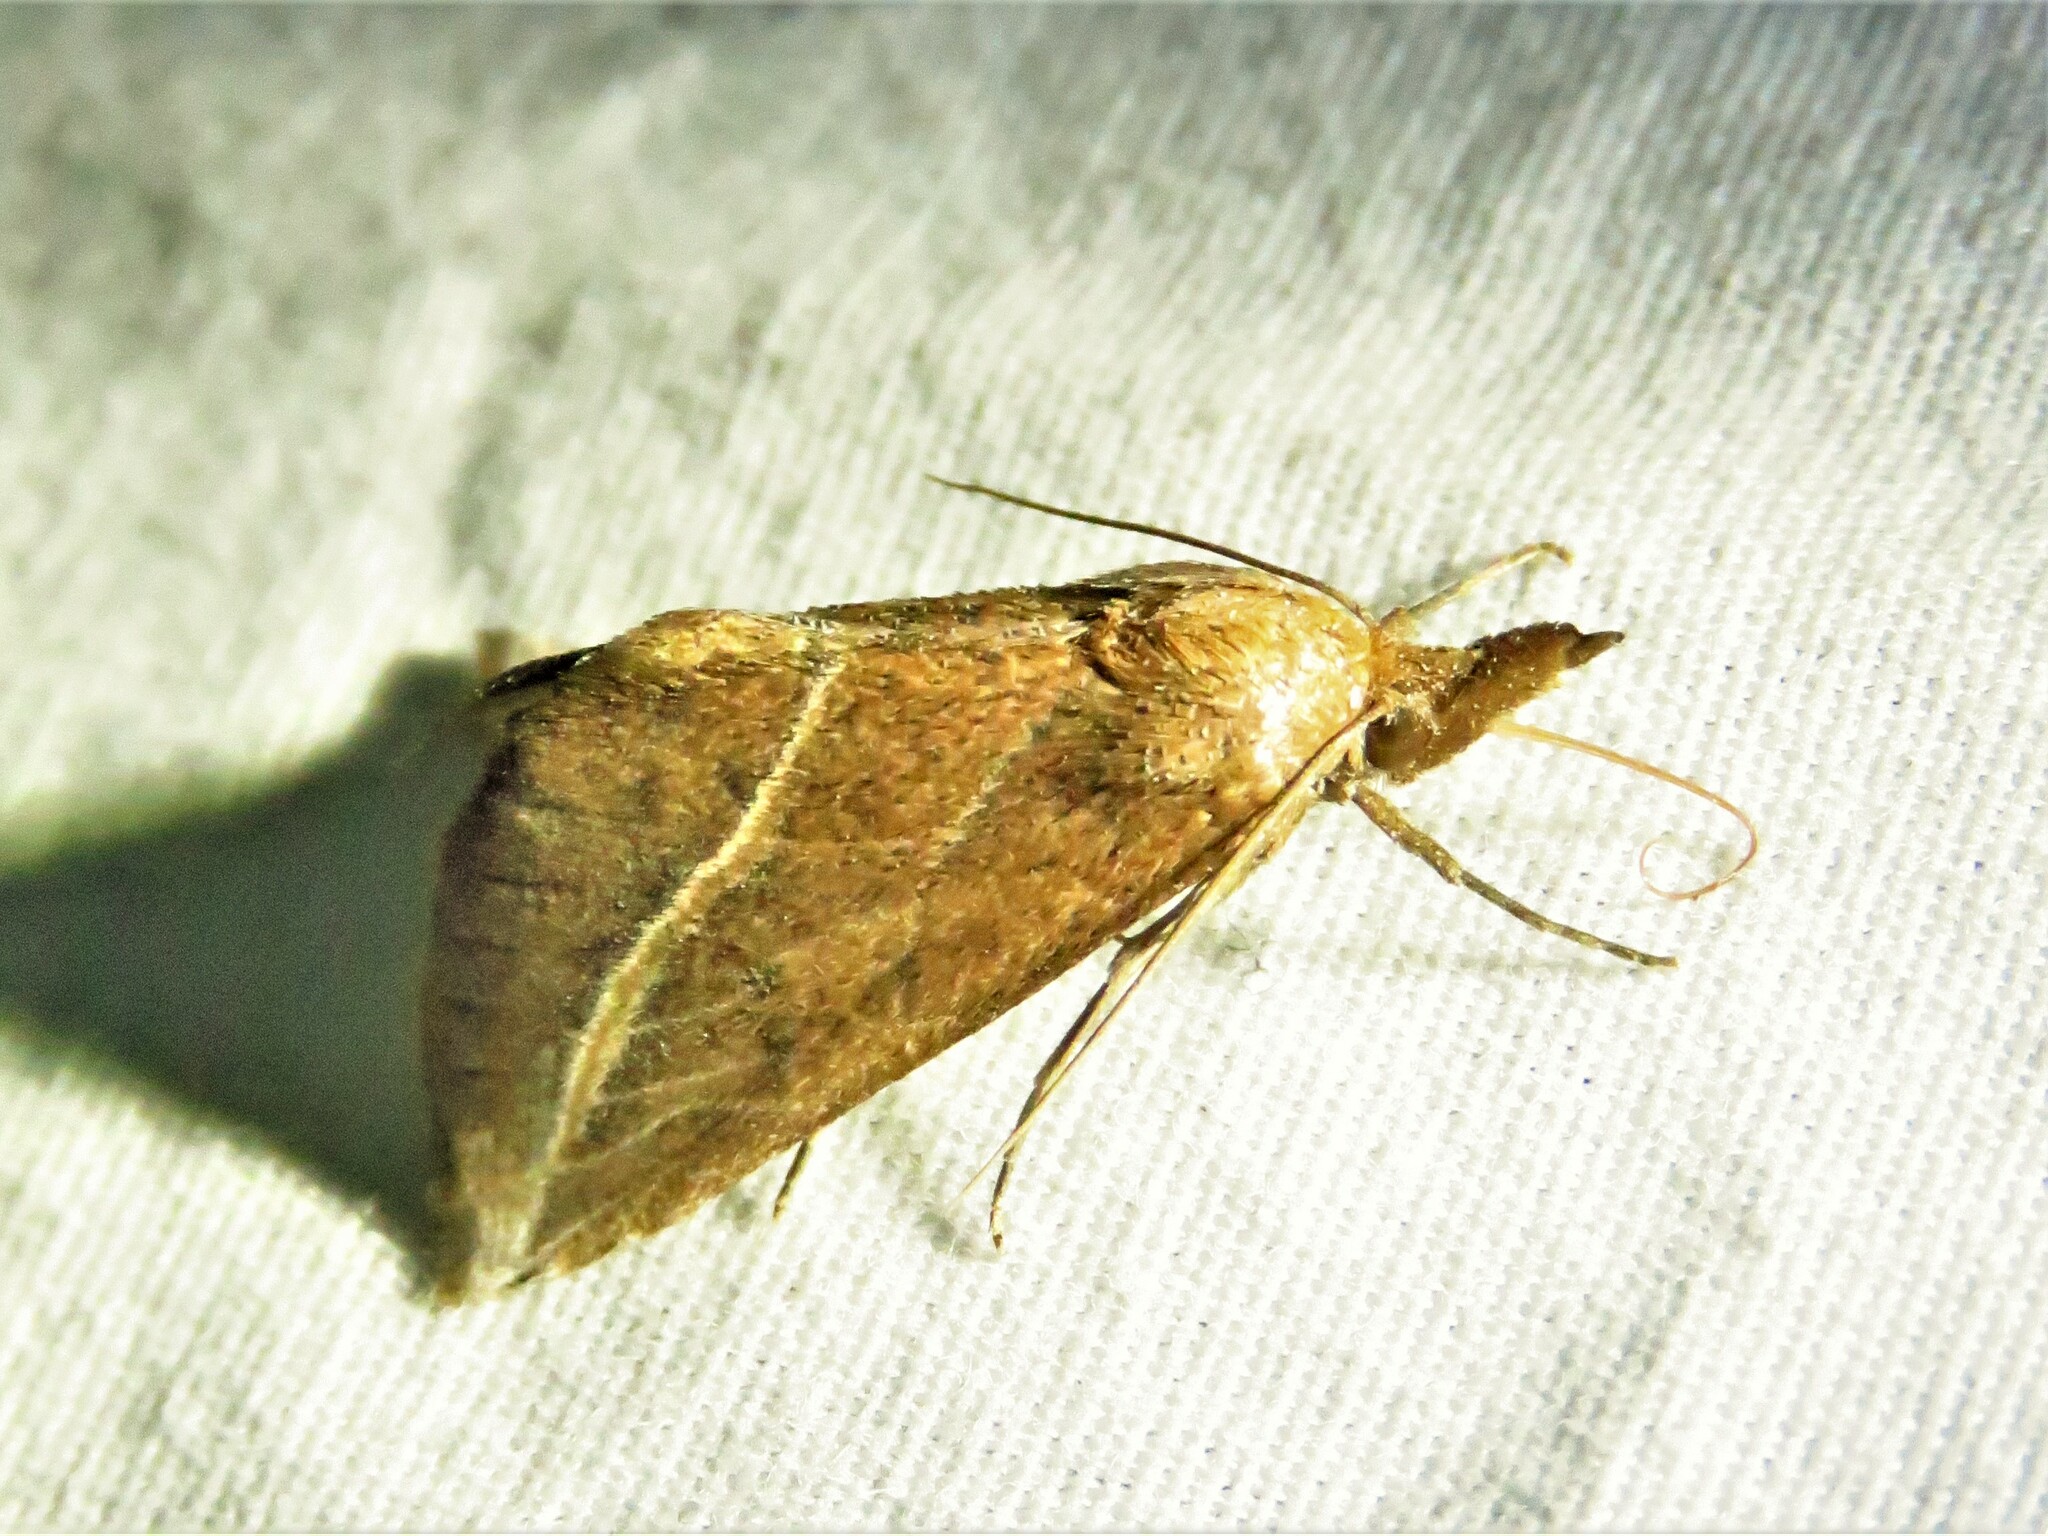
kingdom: Animalia
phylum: Arthropoda
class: Insecta
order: Lepidoptera
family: Erebidae
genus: Phyprosopus
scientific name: Phyprosopus callitrichoides
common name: Curved-lined owlet
